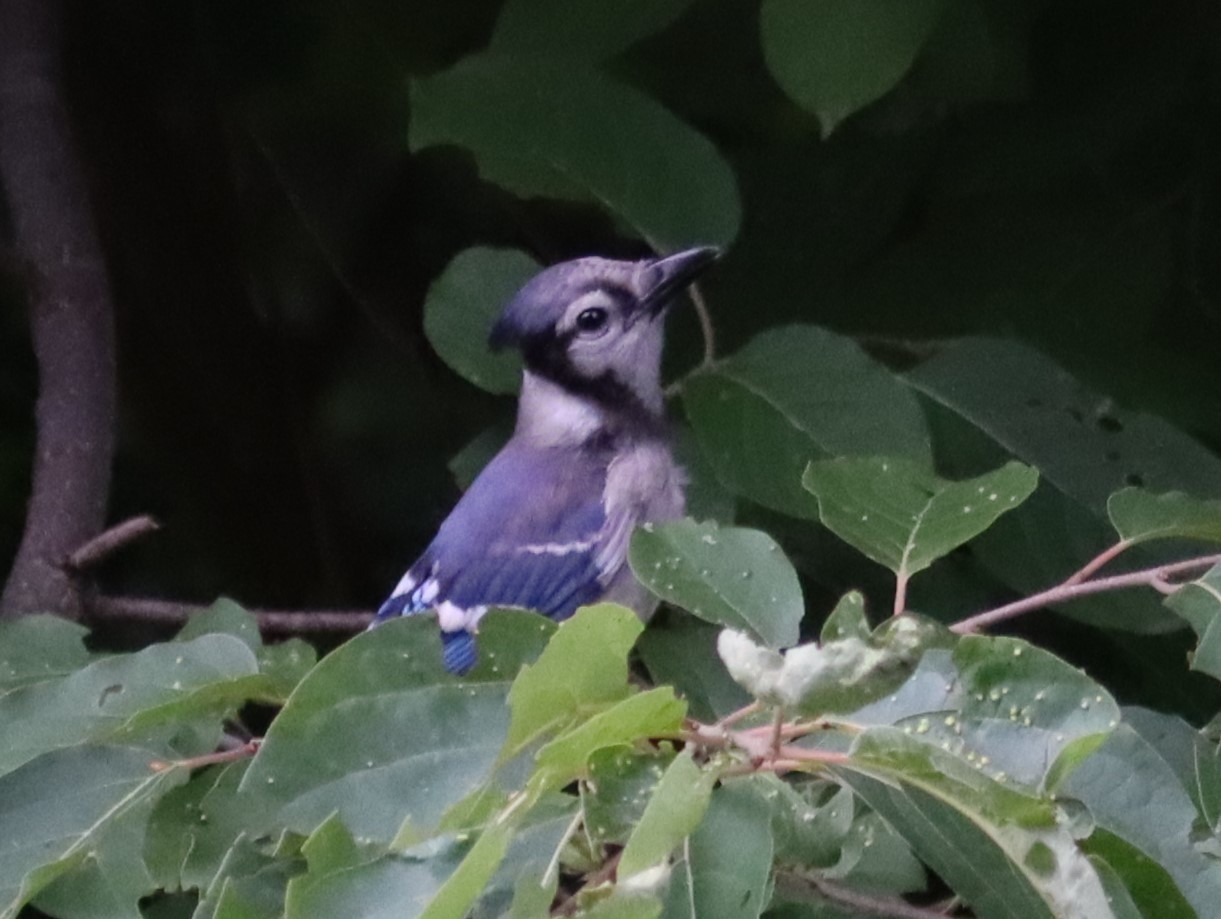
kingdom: Animalia
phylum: Chordata
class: Aves
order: Passeriformes
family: Corvidae
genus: Cyanocitta
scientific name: Cyanocitta cristata
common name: Blue jay
